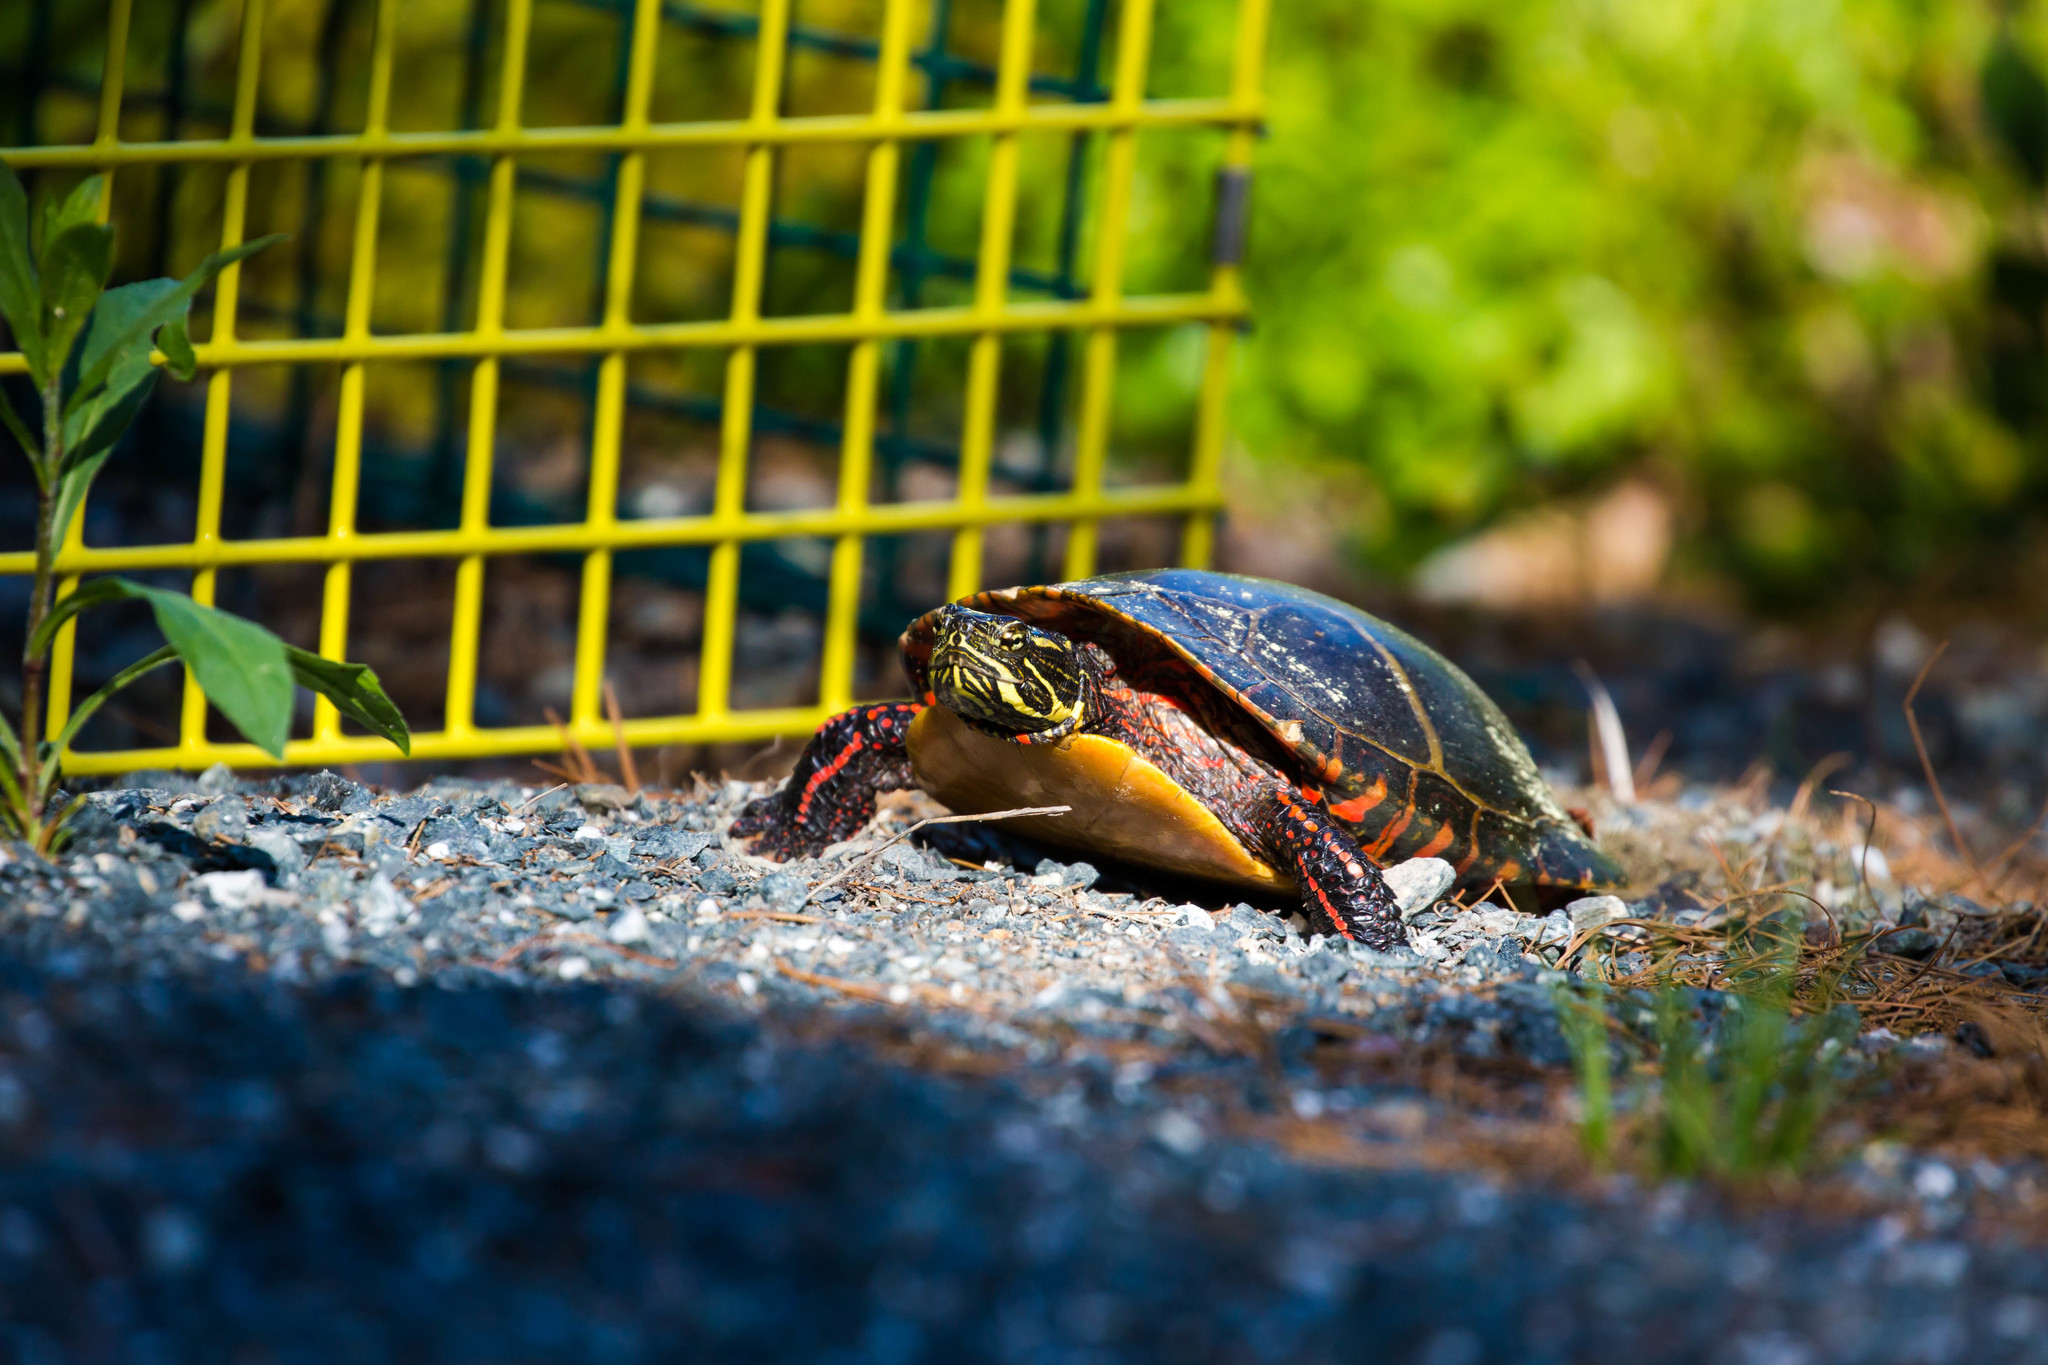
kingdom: Animalia
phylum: Chordata
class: Testudines
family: Emydidae
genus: Chrysemys
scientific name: Chrysemys picta
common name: Painted turtle
